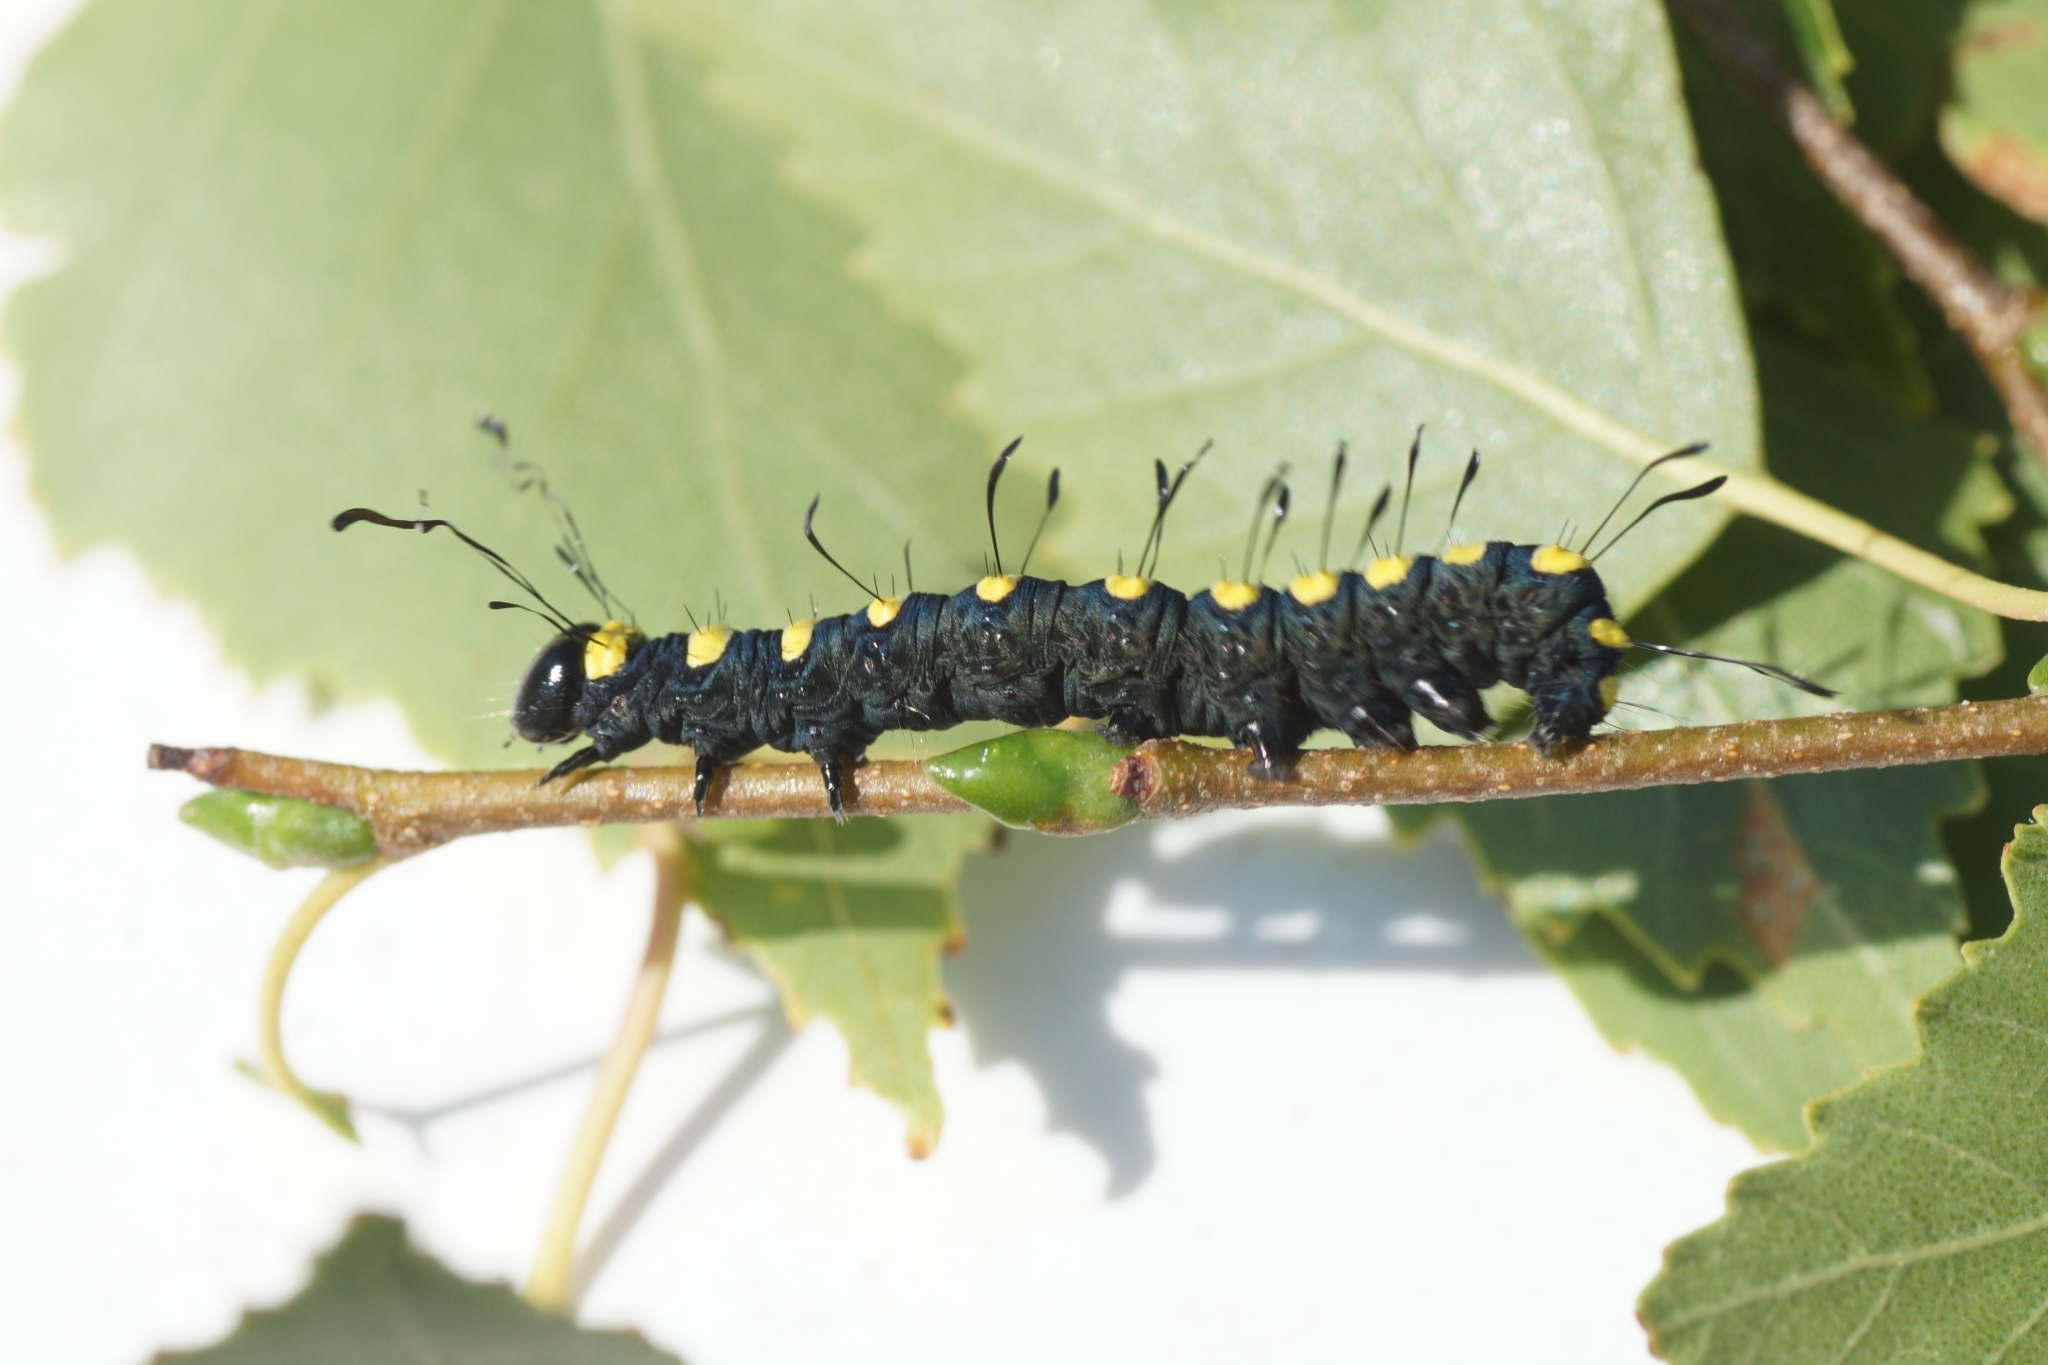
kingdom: Animalia
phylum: Arthropoda
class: Insecta
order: Lepidoptera
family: Noctuidae
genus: Acronicta
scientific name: Acronicta alni
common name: Alder moth
